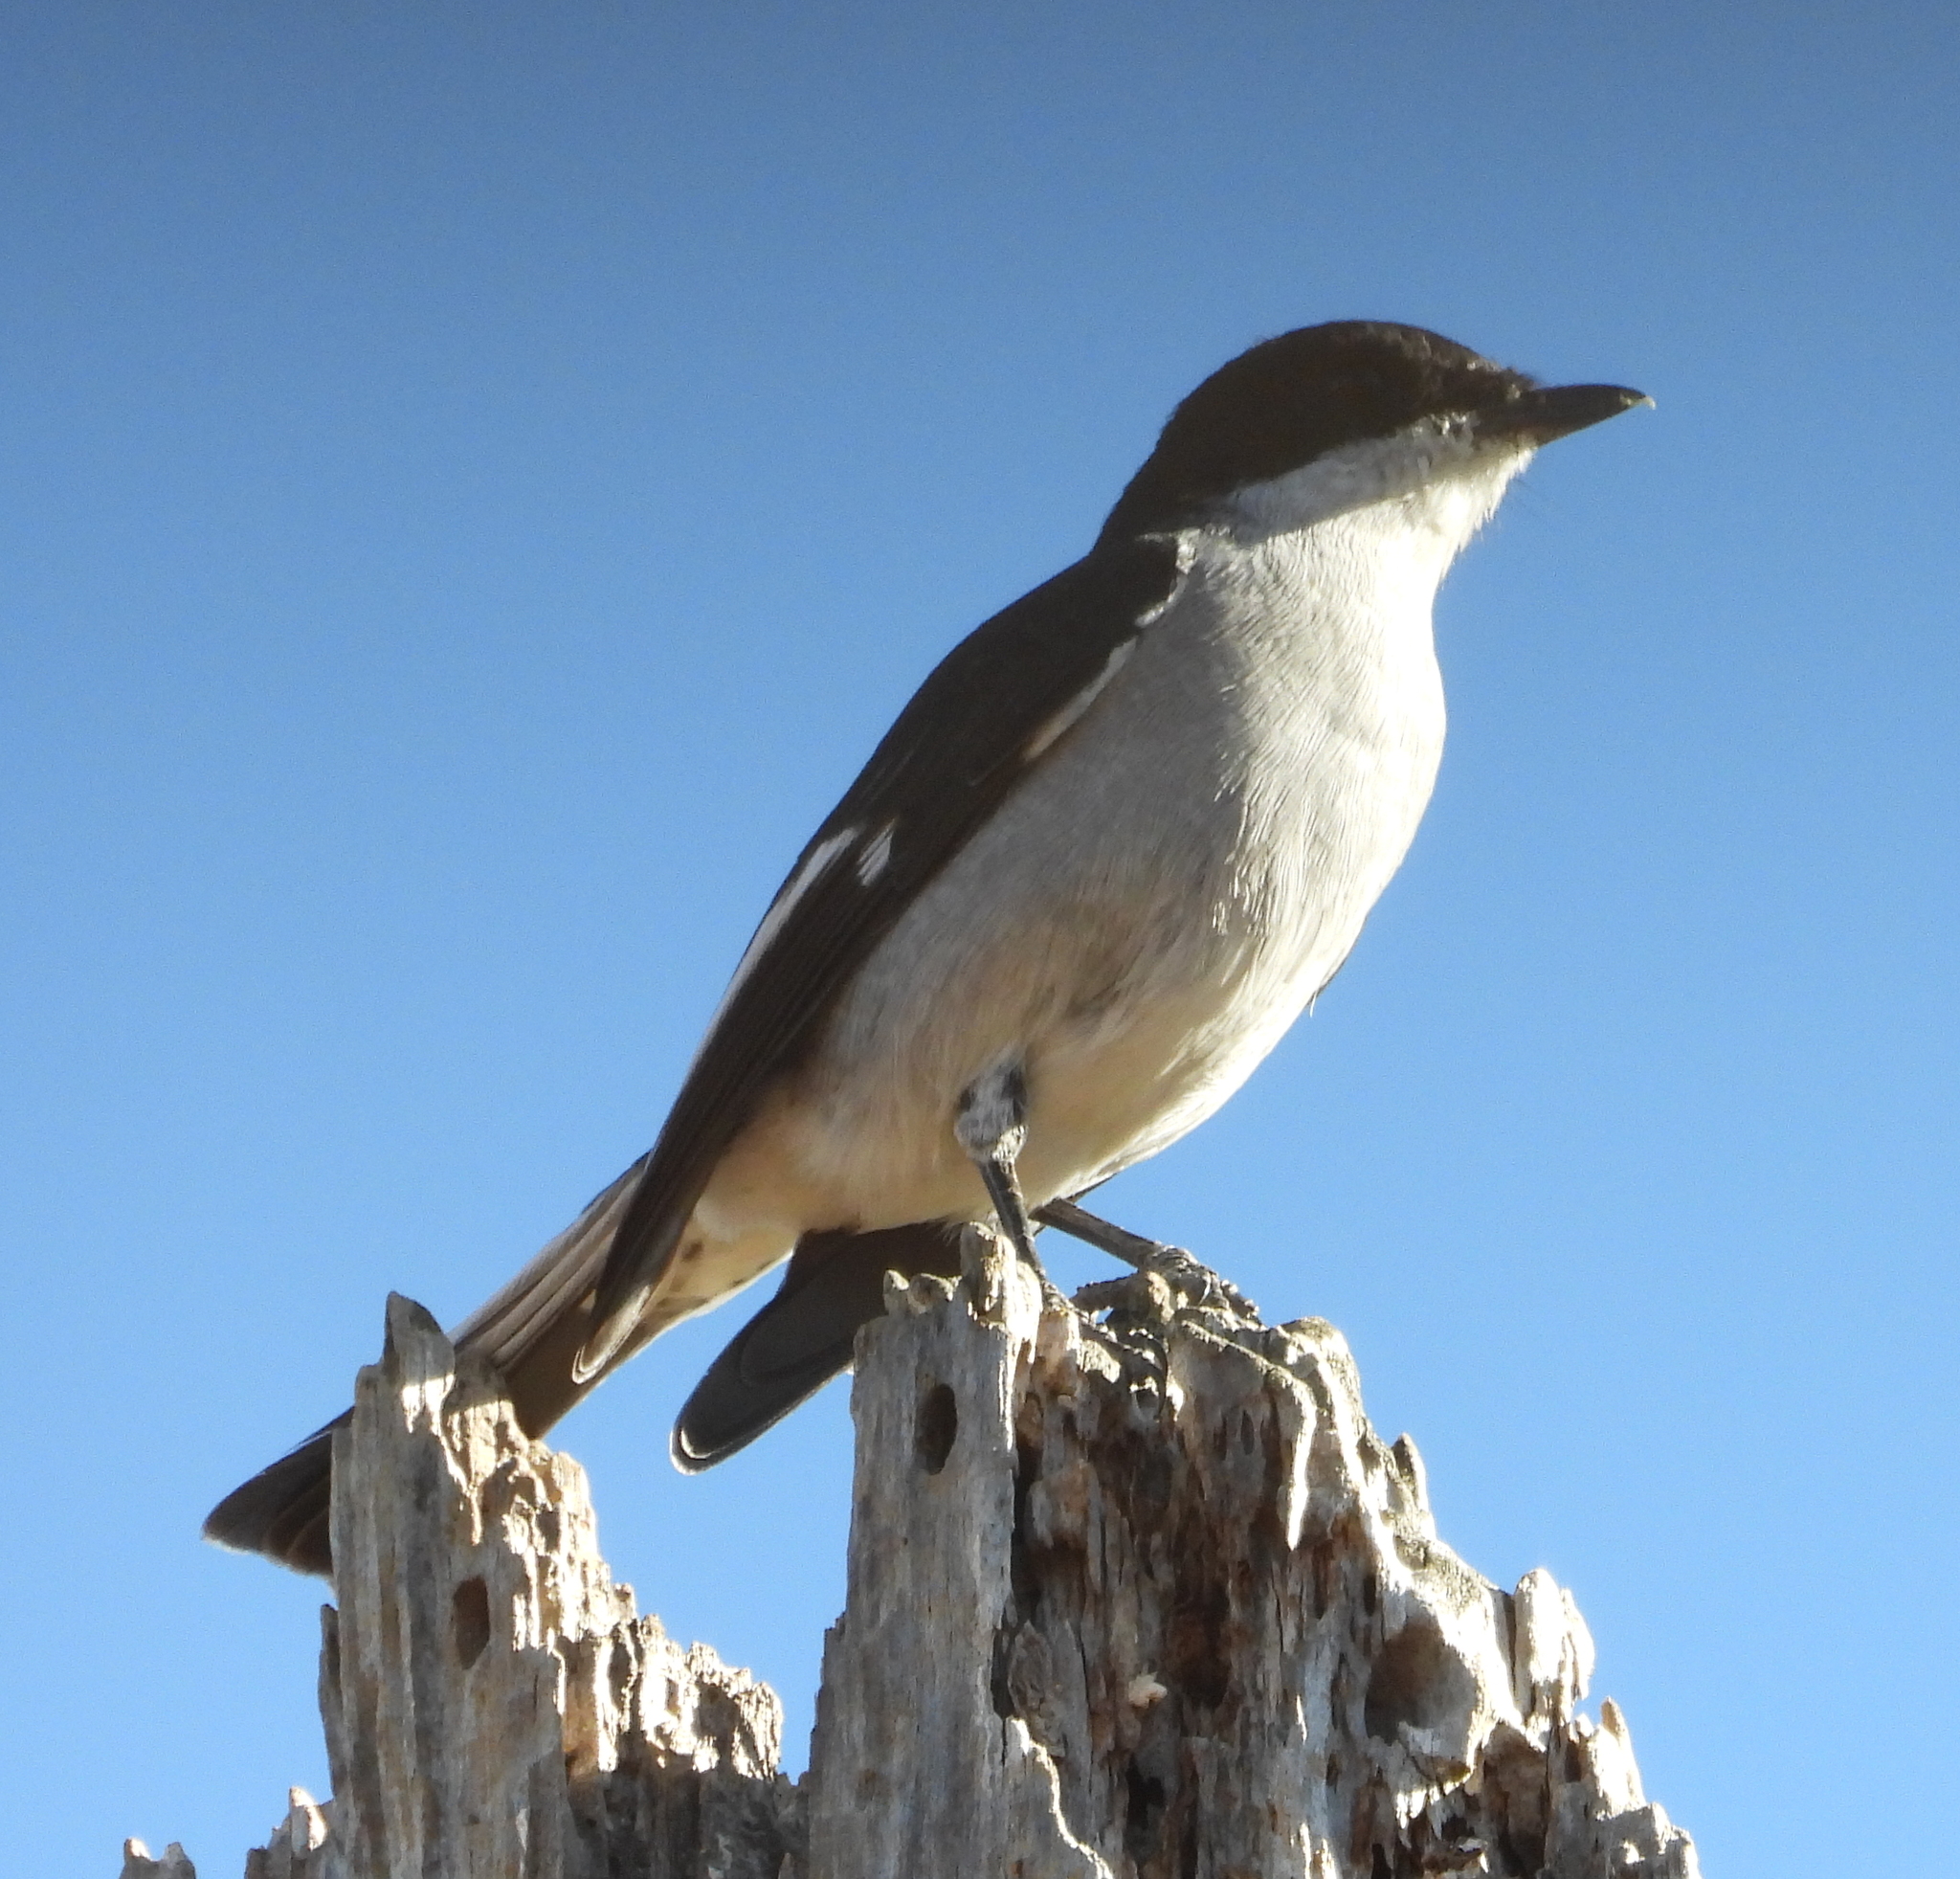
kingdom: Animalia
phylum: Chordata
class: Aves
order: Passeriformes
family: Muscicapidae
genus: Sigelus
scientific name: Sigelus silens
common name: Fiscal flycatcher
